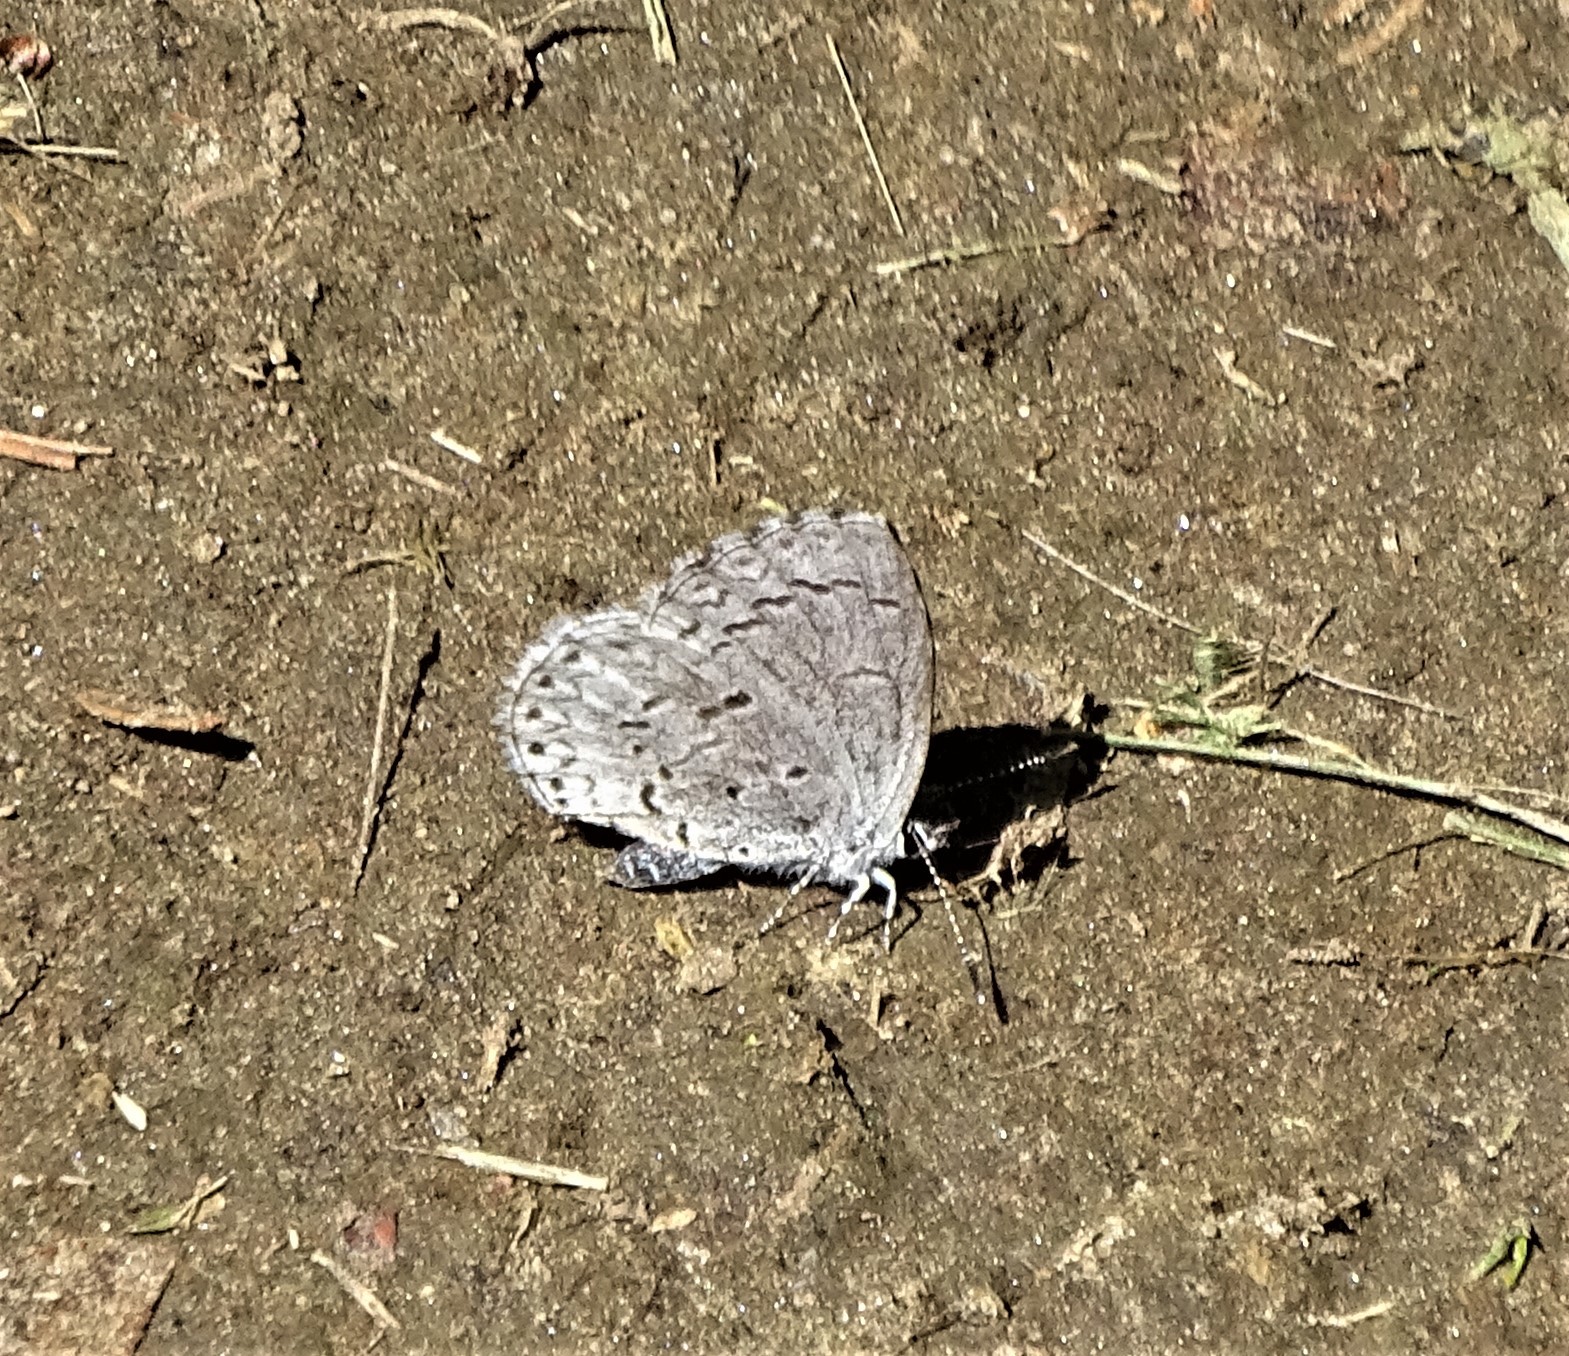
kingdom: Animalia
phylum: Arthropoda
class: Insecta
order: Lepidoptera
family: Lycaenidae
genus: Celastrina
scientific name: Celastrina lucia
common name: Lucia azure
